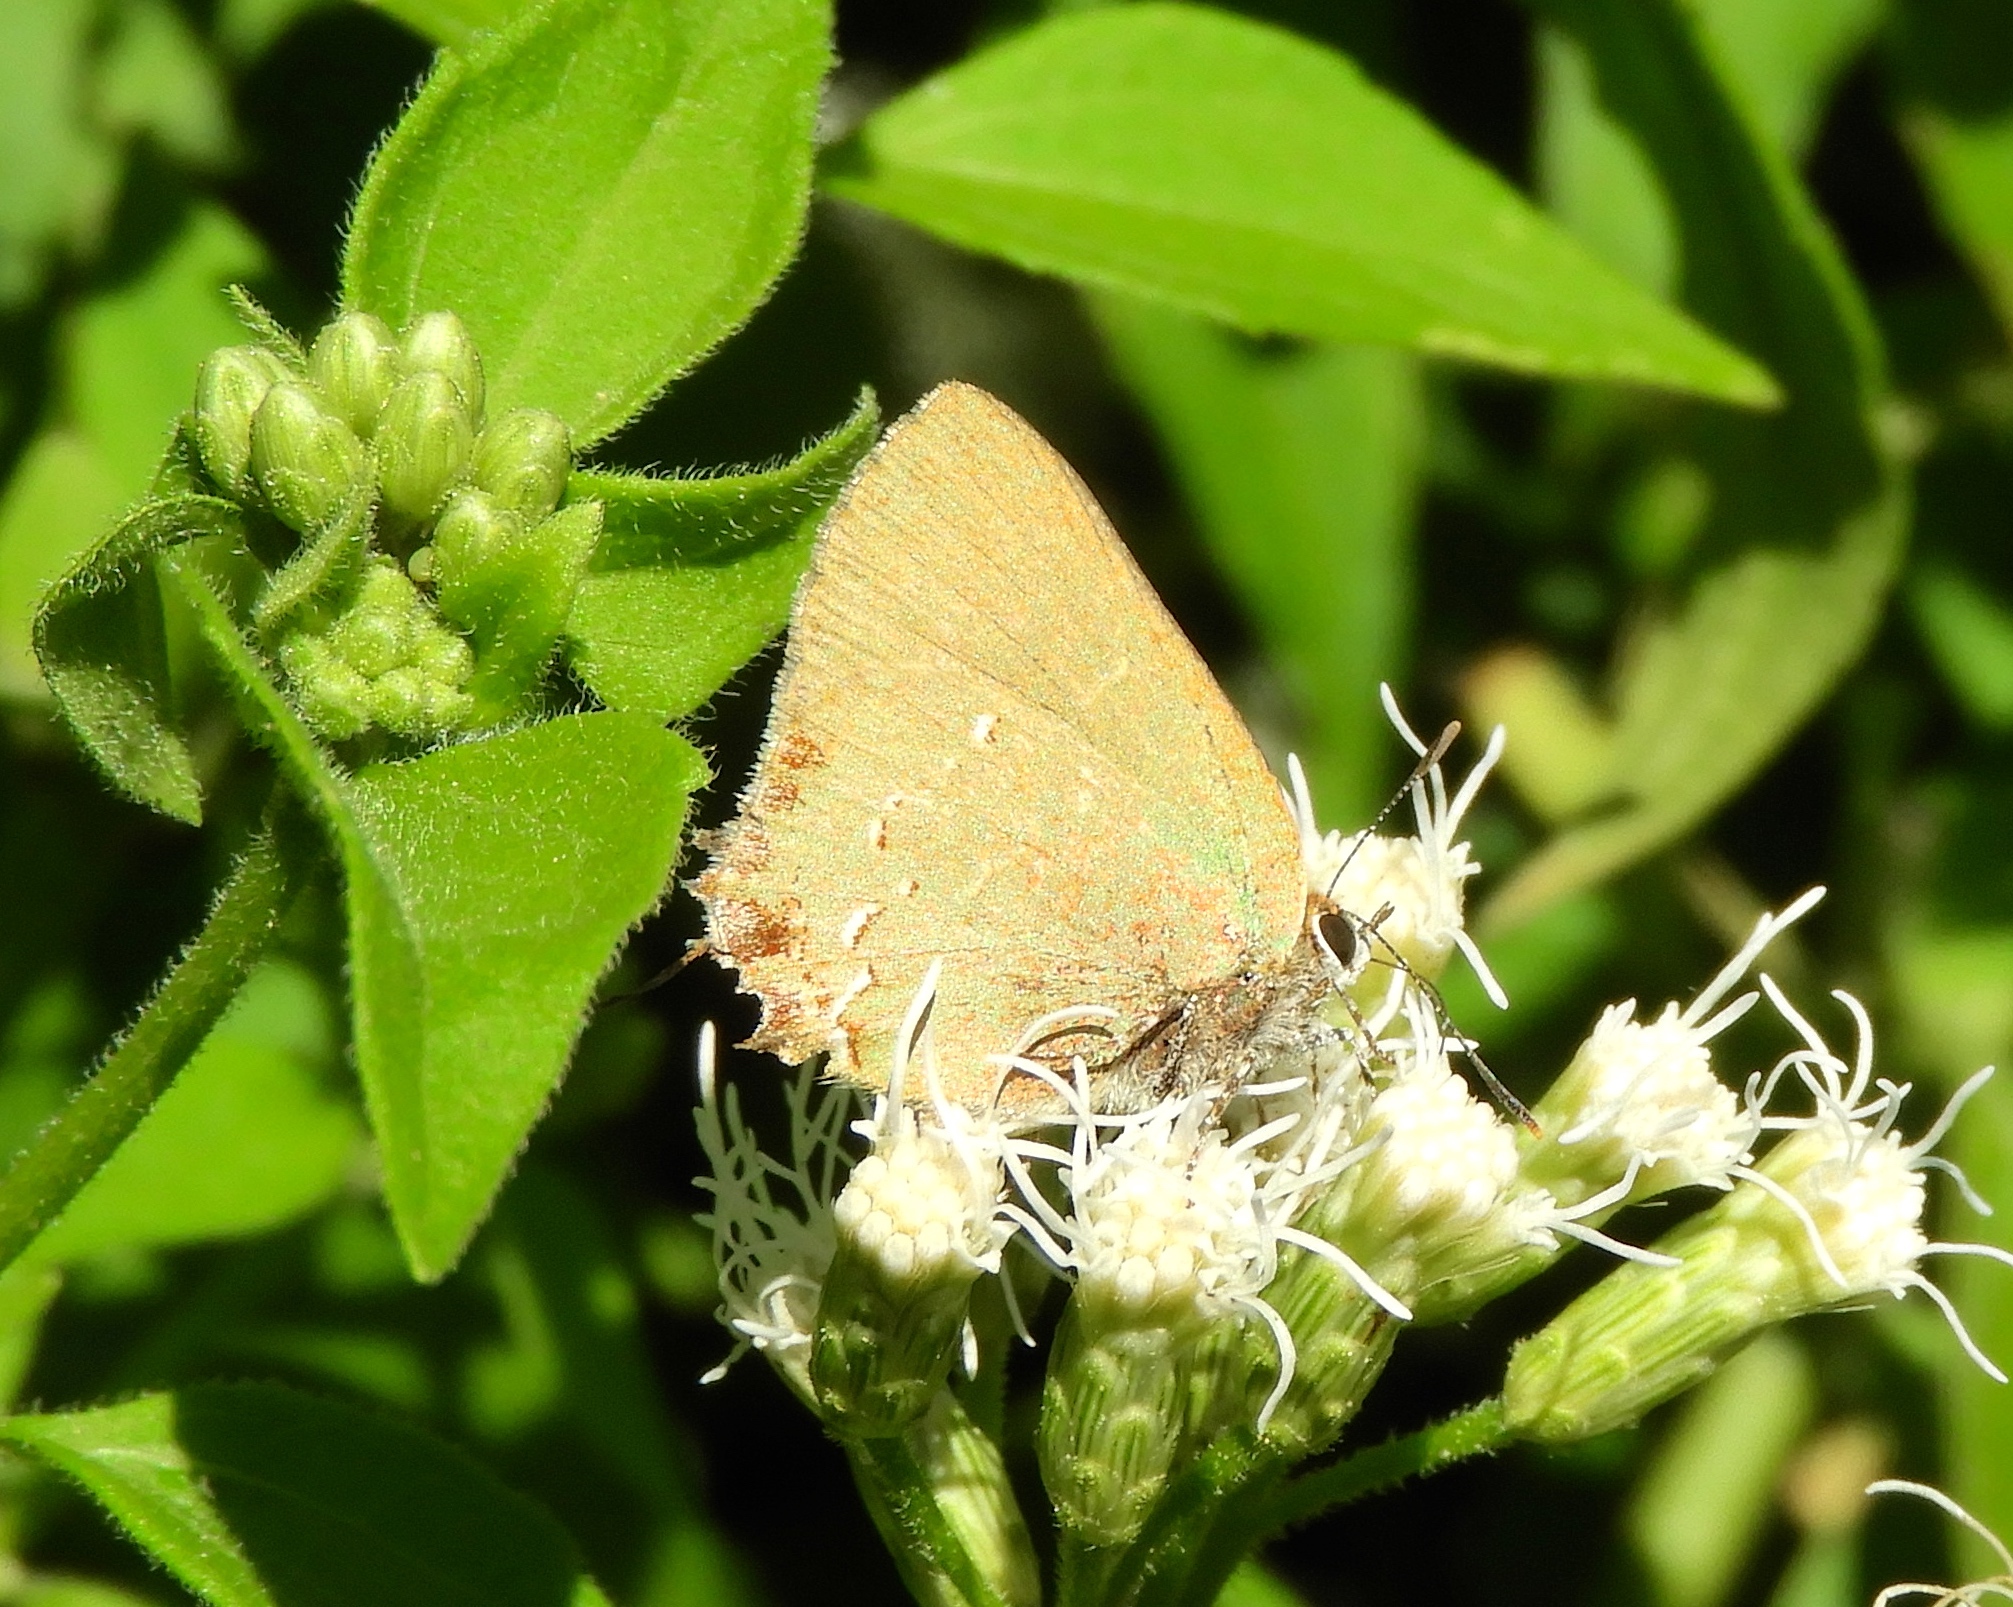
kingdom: Animalia
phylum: Arthropoda
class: Insecta
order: Lepidoptera
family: Lycaenidae
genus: Cyanophrys
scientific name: Cyanophrys miserabilis
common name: Clench's greenstreak
